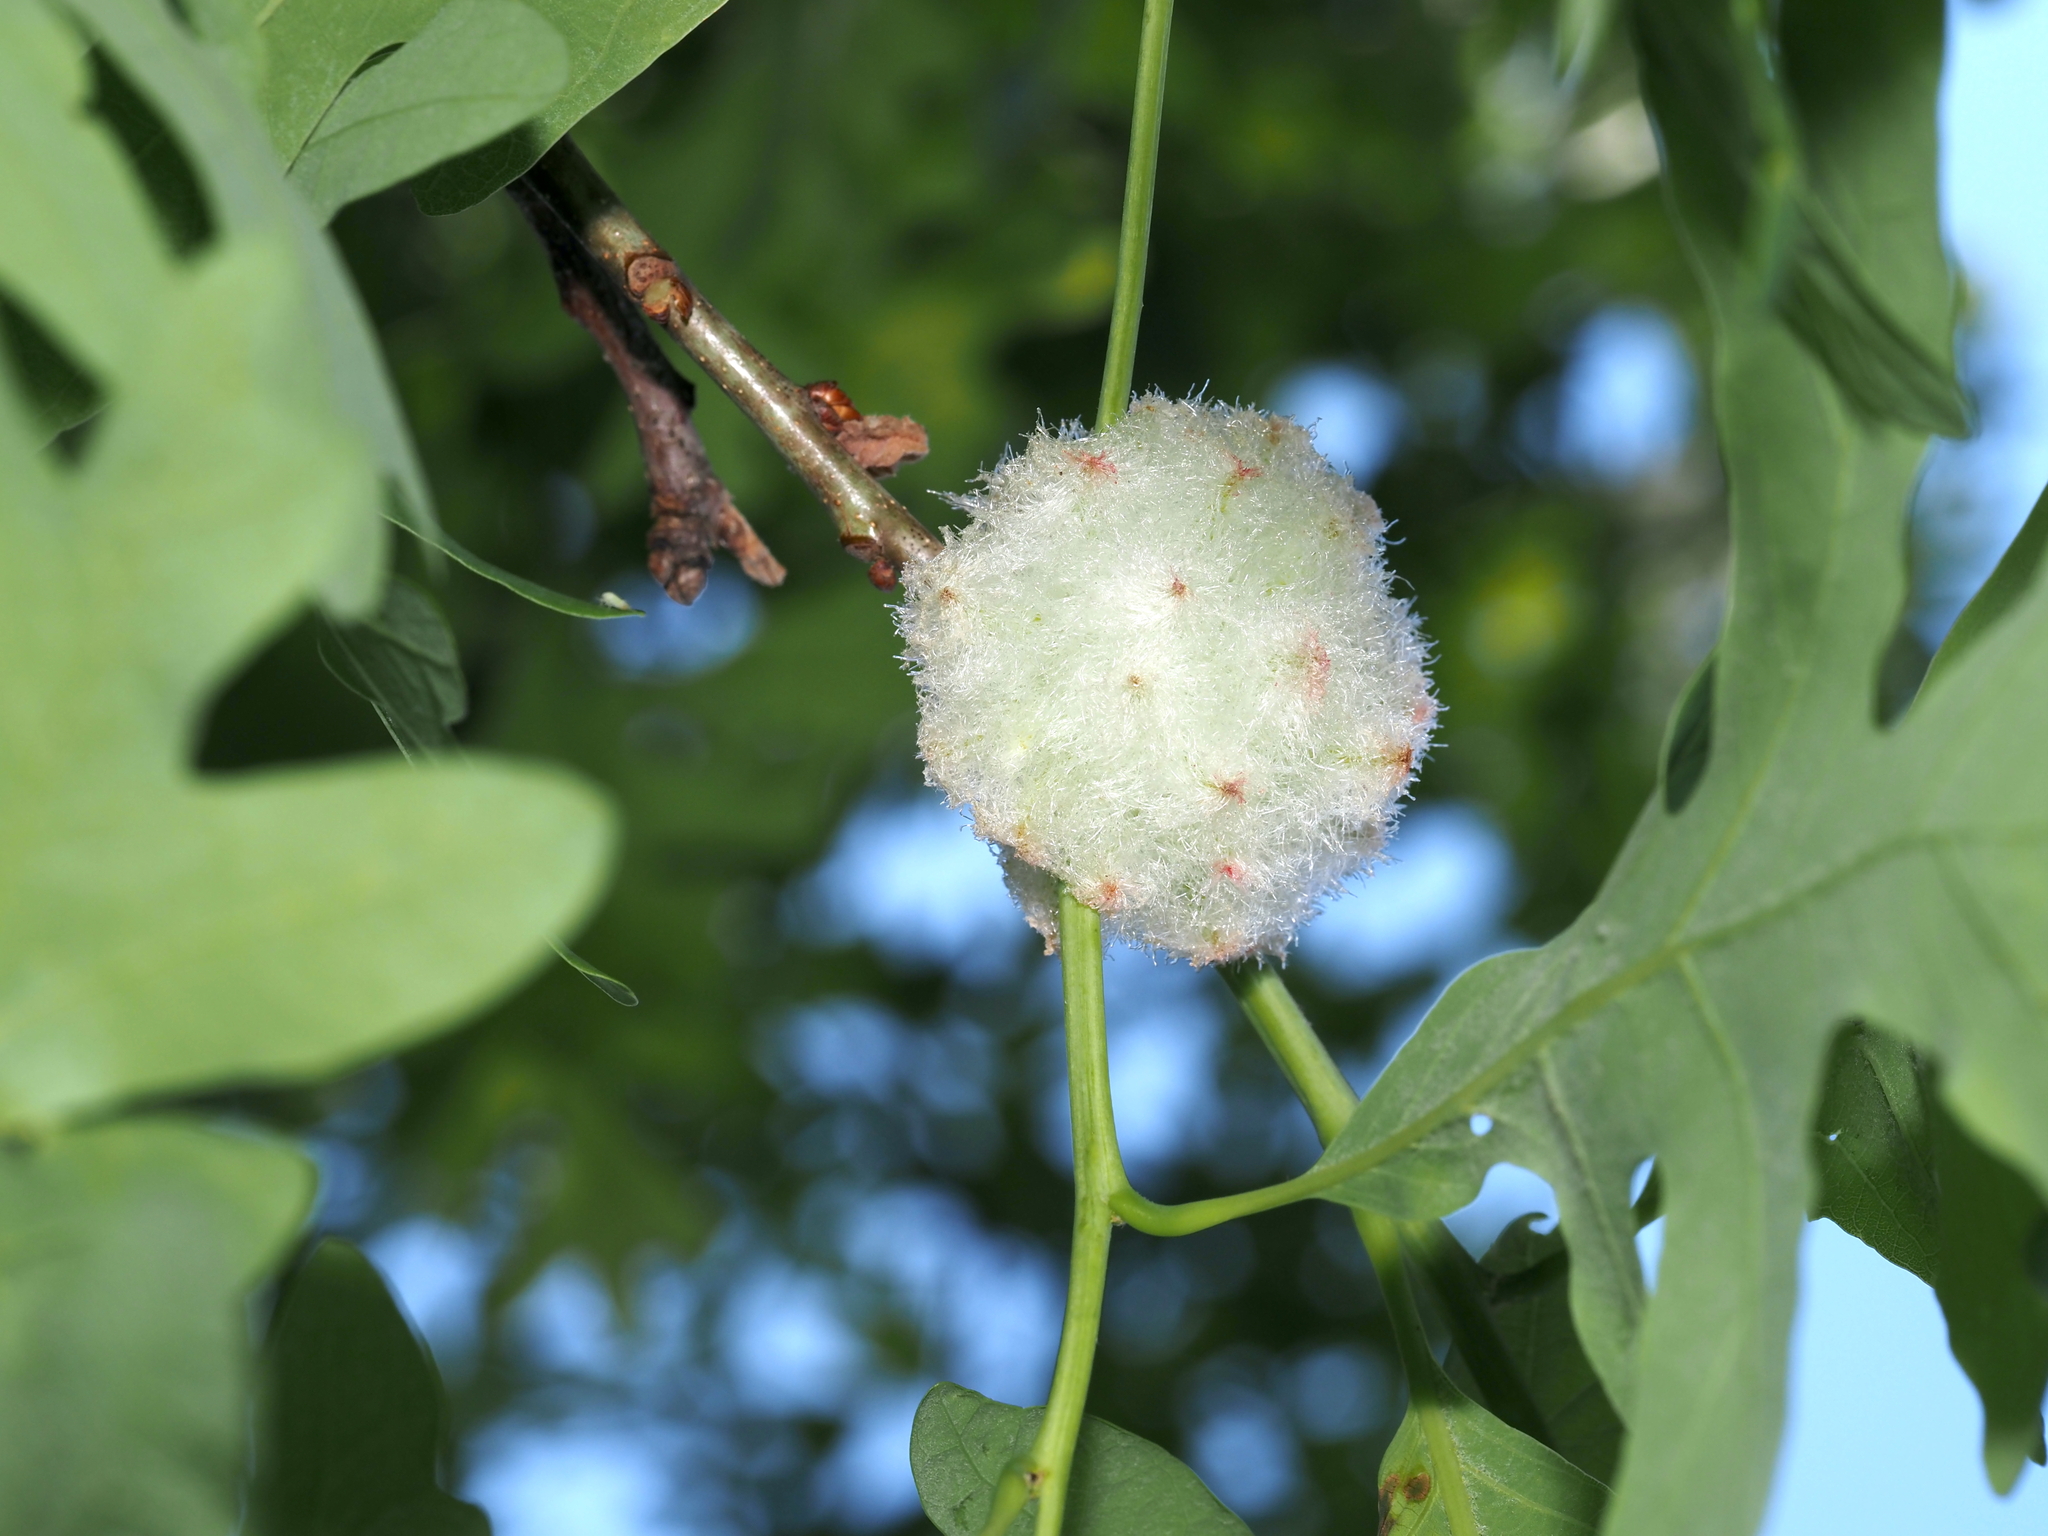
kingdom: Animalia
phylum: Arthropoda
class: Insecta
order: Hymenoptera
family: Cynipidae
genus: Callirhytis
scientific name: Callirhytis
